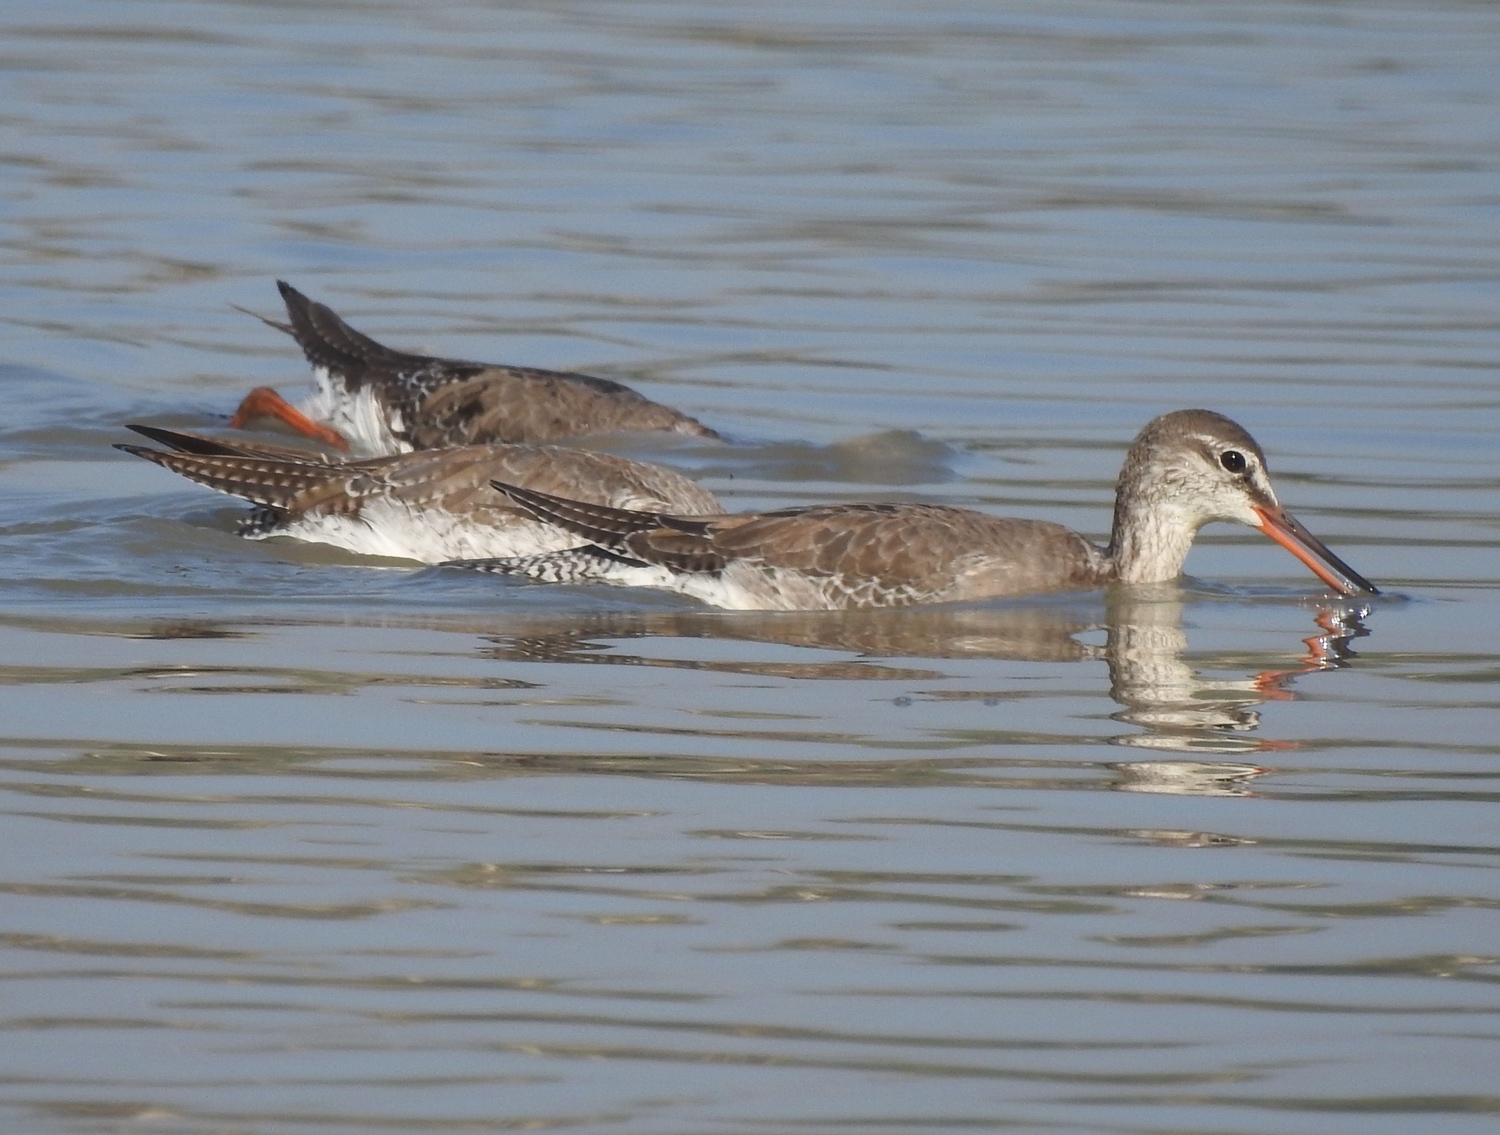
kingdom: Animalia
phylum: Chordata
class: Aves
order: Charadriiformes
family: Scolopacidae
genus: Tringa
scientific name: Tringa erythropus
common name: Spotted redshank
